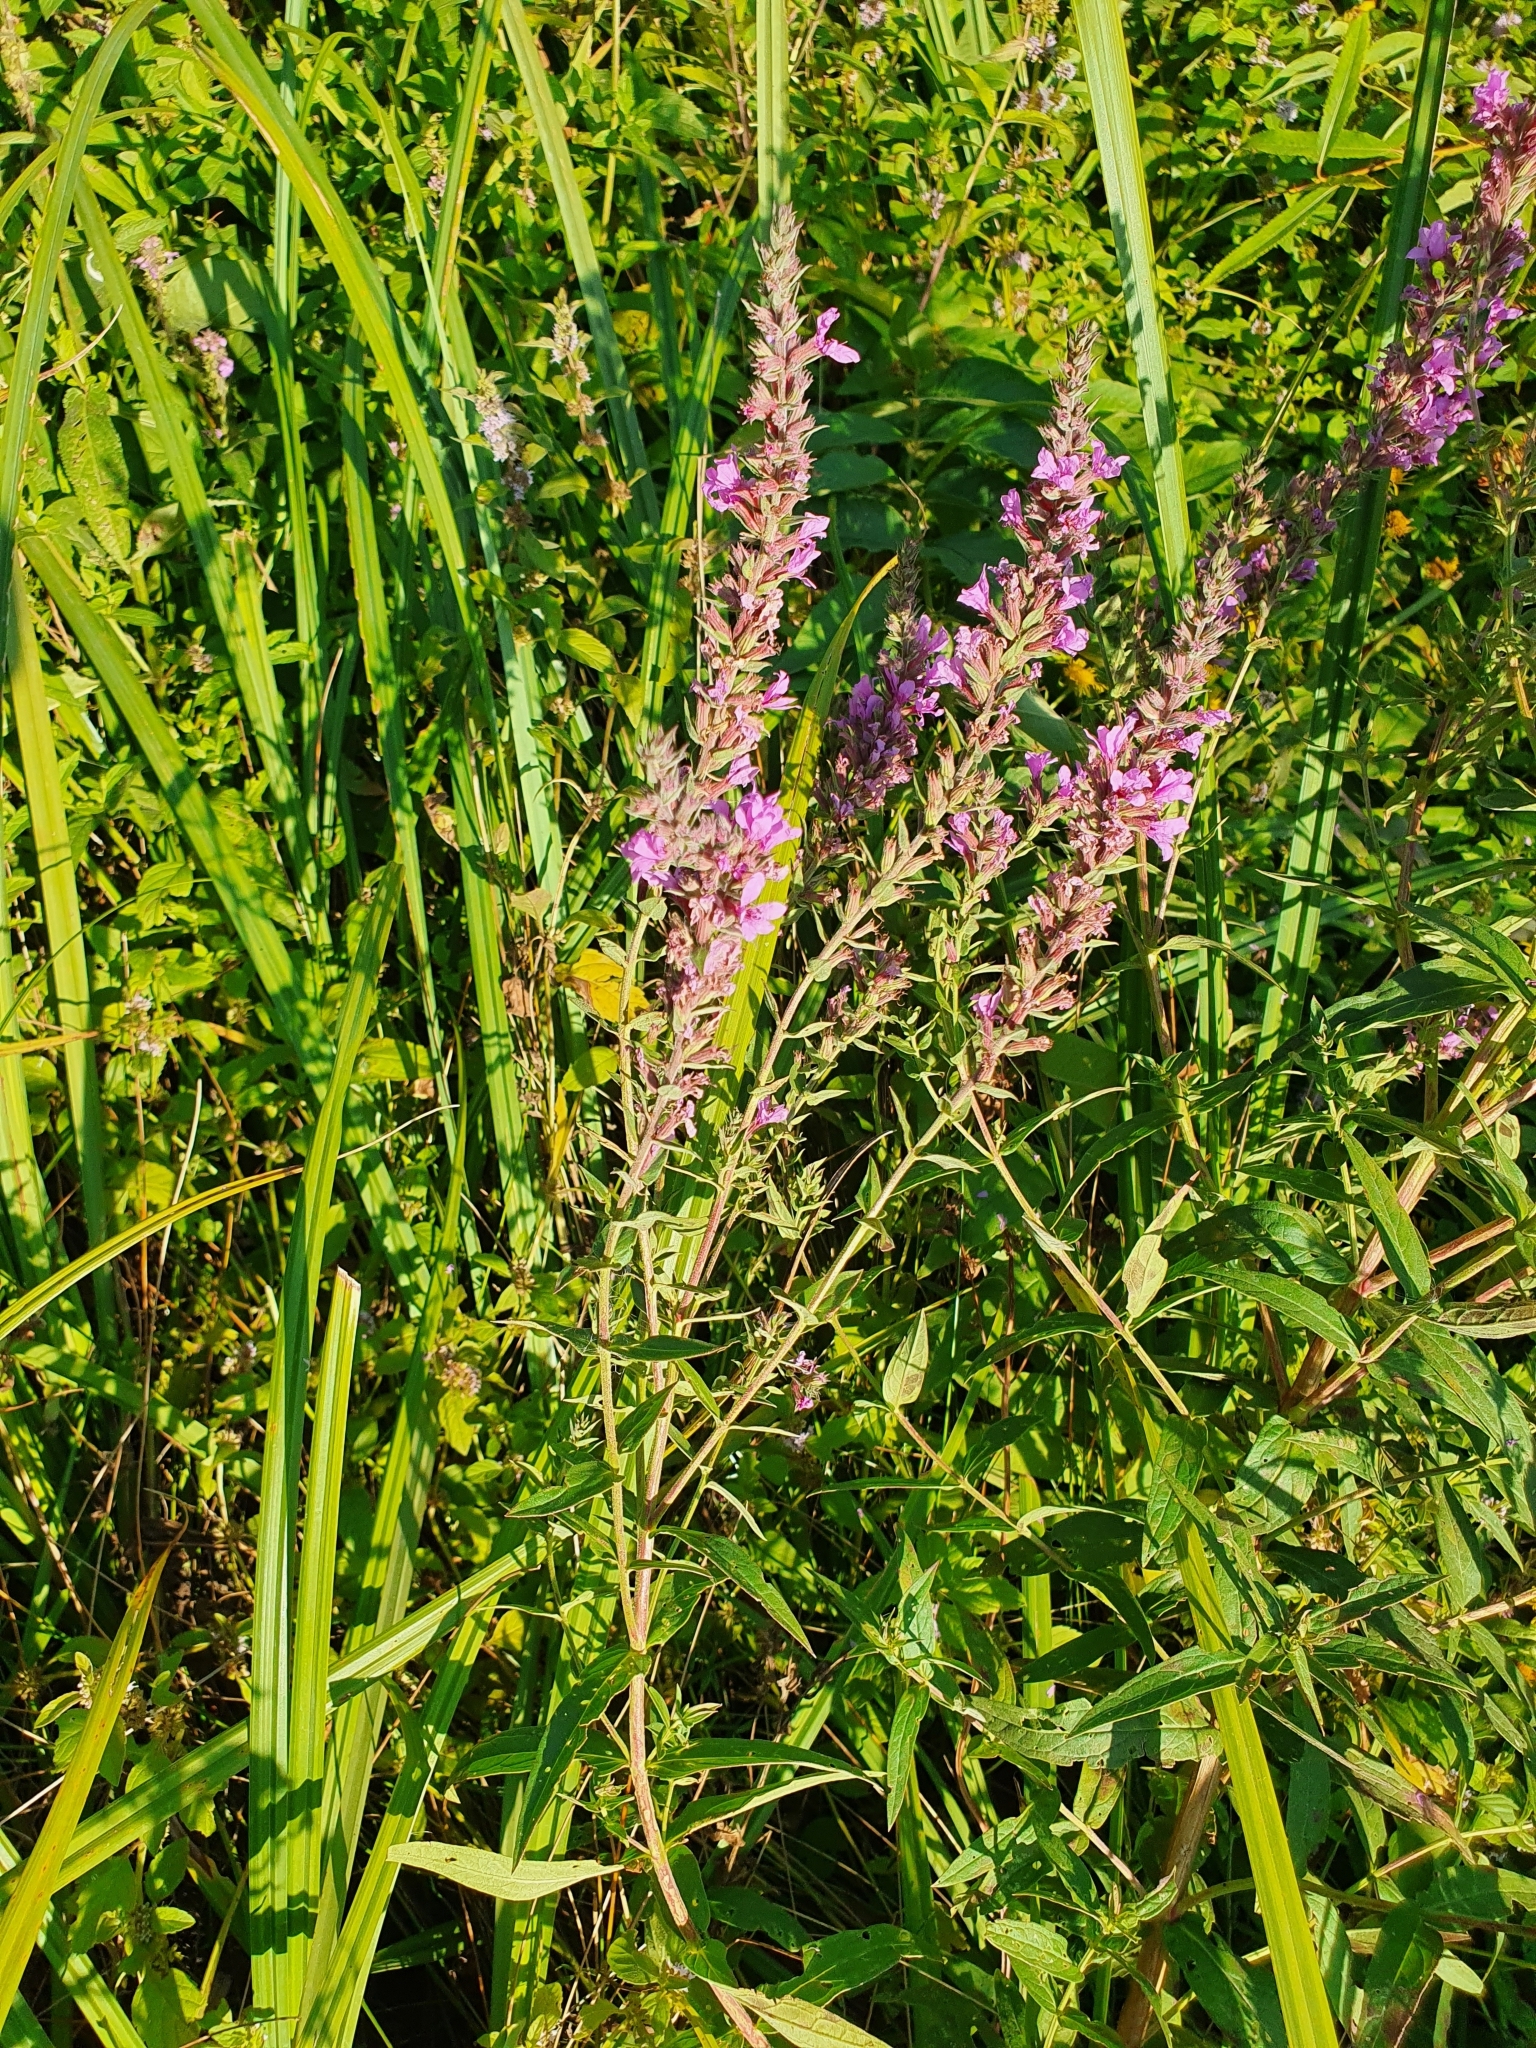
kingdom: Plantae
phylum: Tracheophyta
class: Magnoliopsida
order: Myrtales
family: Lythraceae
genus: Lythrum
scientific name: Lythrum salicaria
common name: Purple loosestrife
